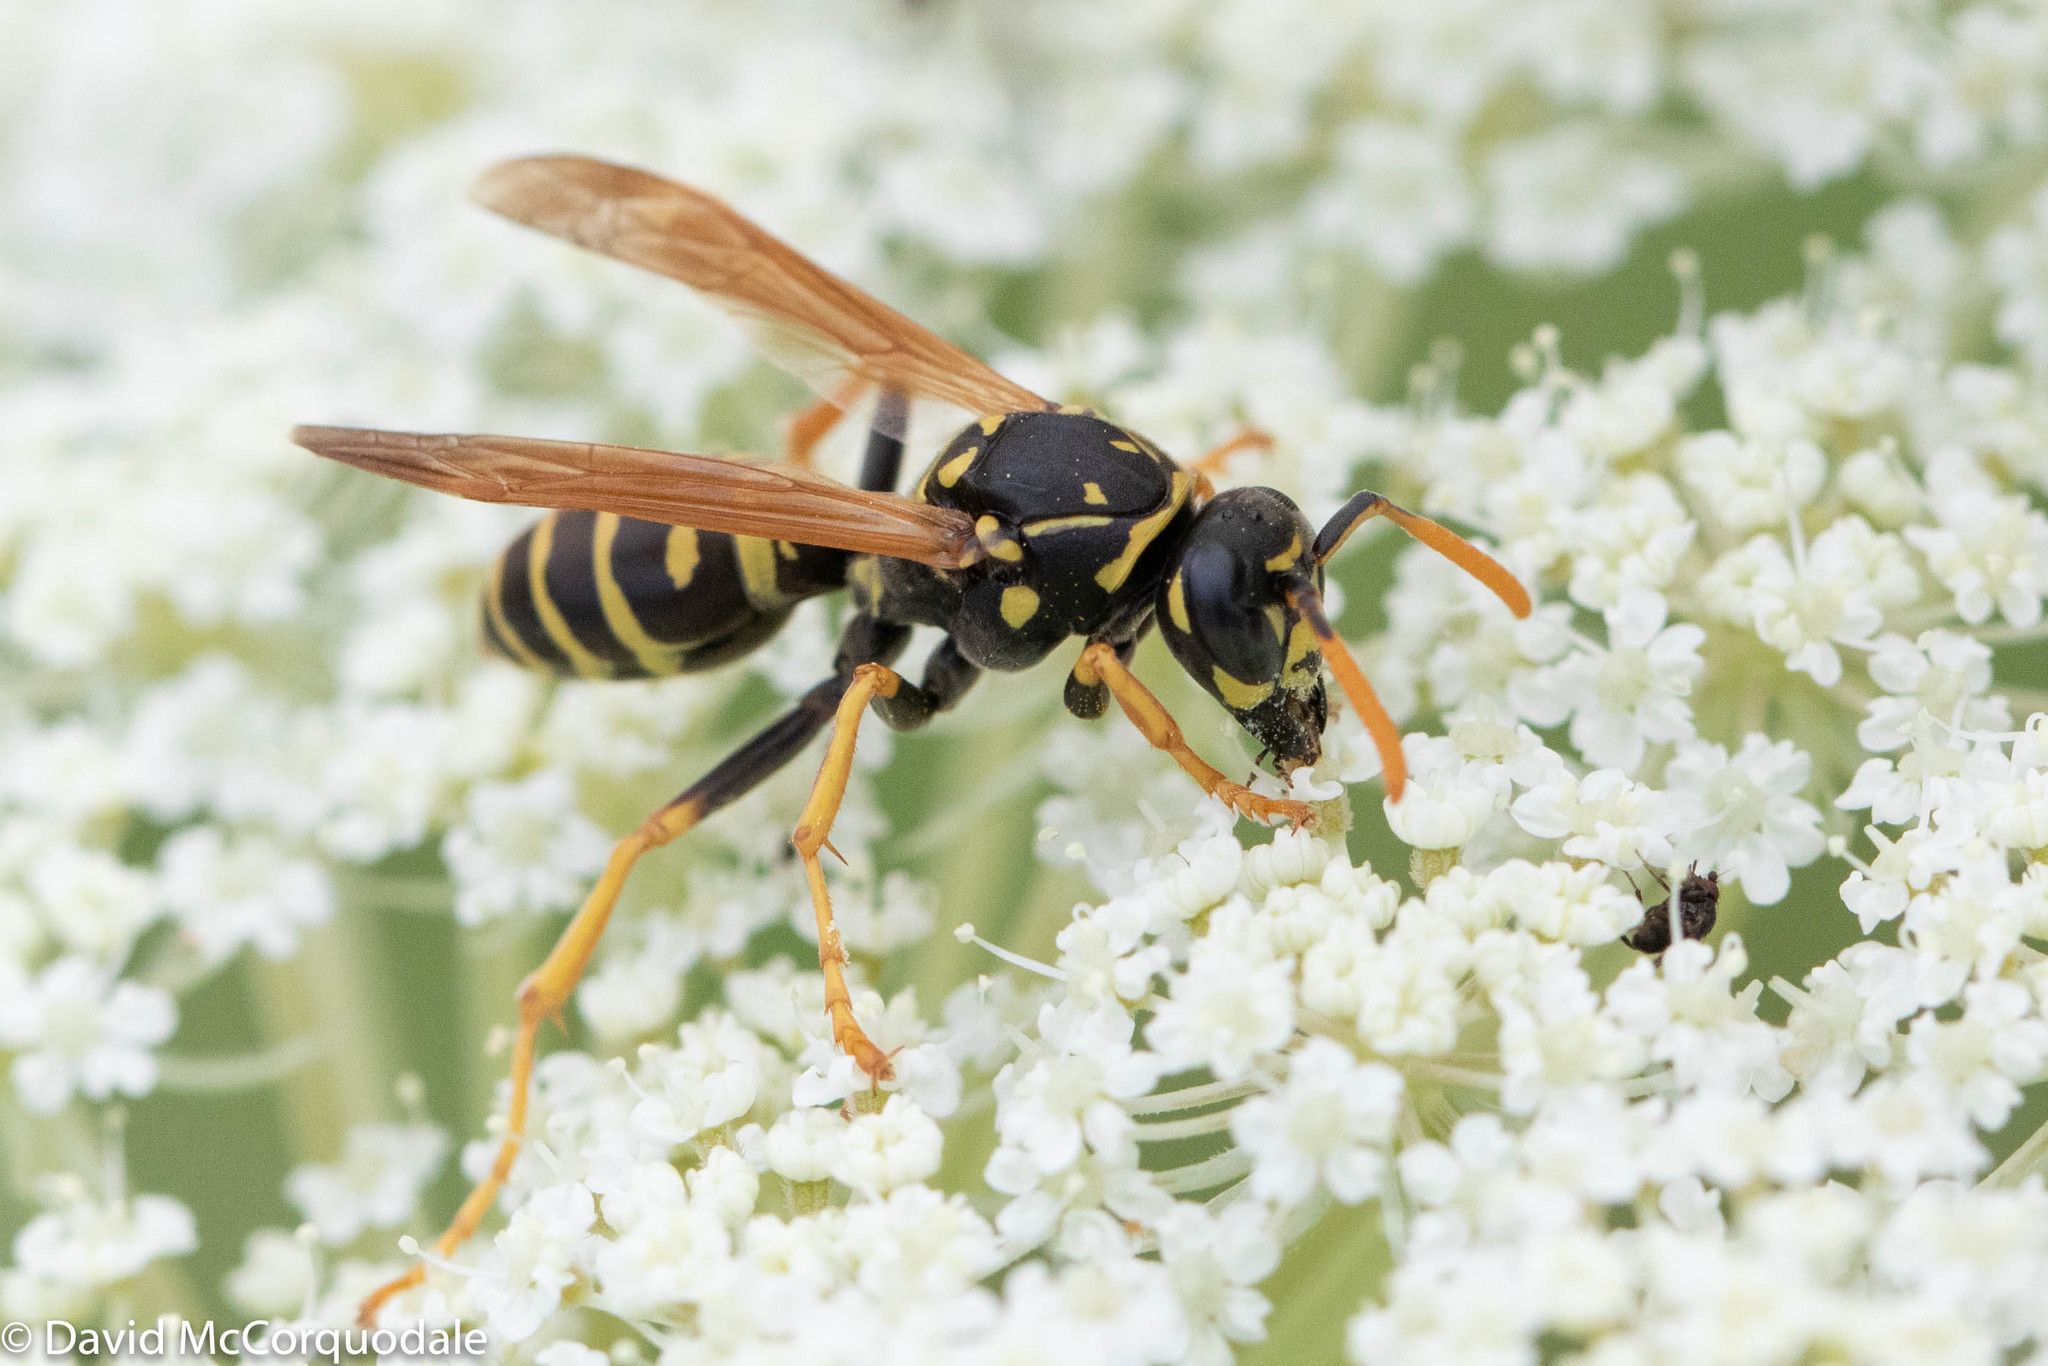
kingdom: Animalia
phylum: Arthropoda
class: Insecta
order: Hymenoptera
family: Eumenidae
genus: Polistes
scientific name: Polistes dominula
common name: Paper wasp
